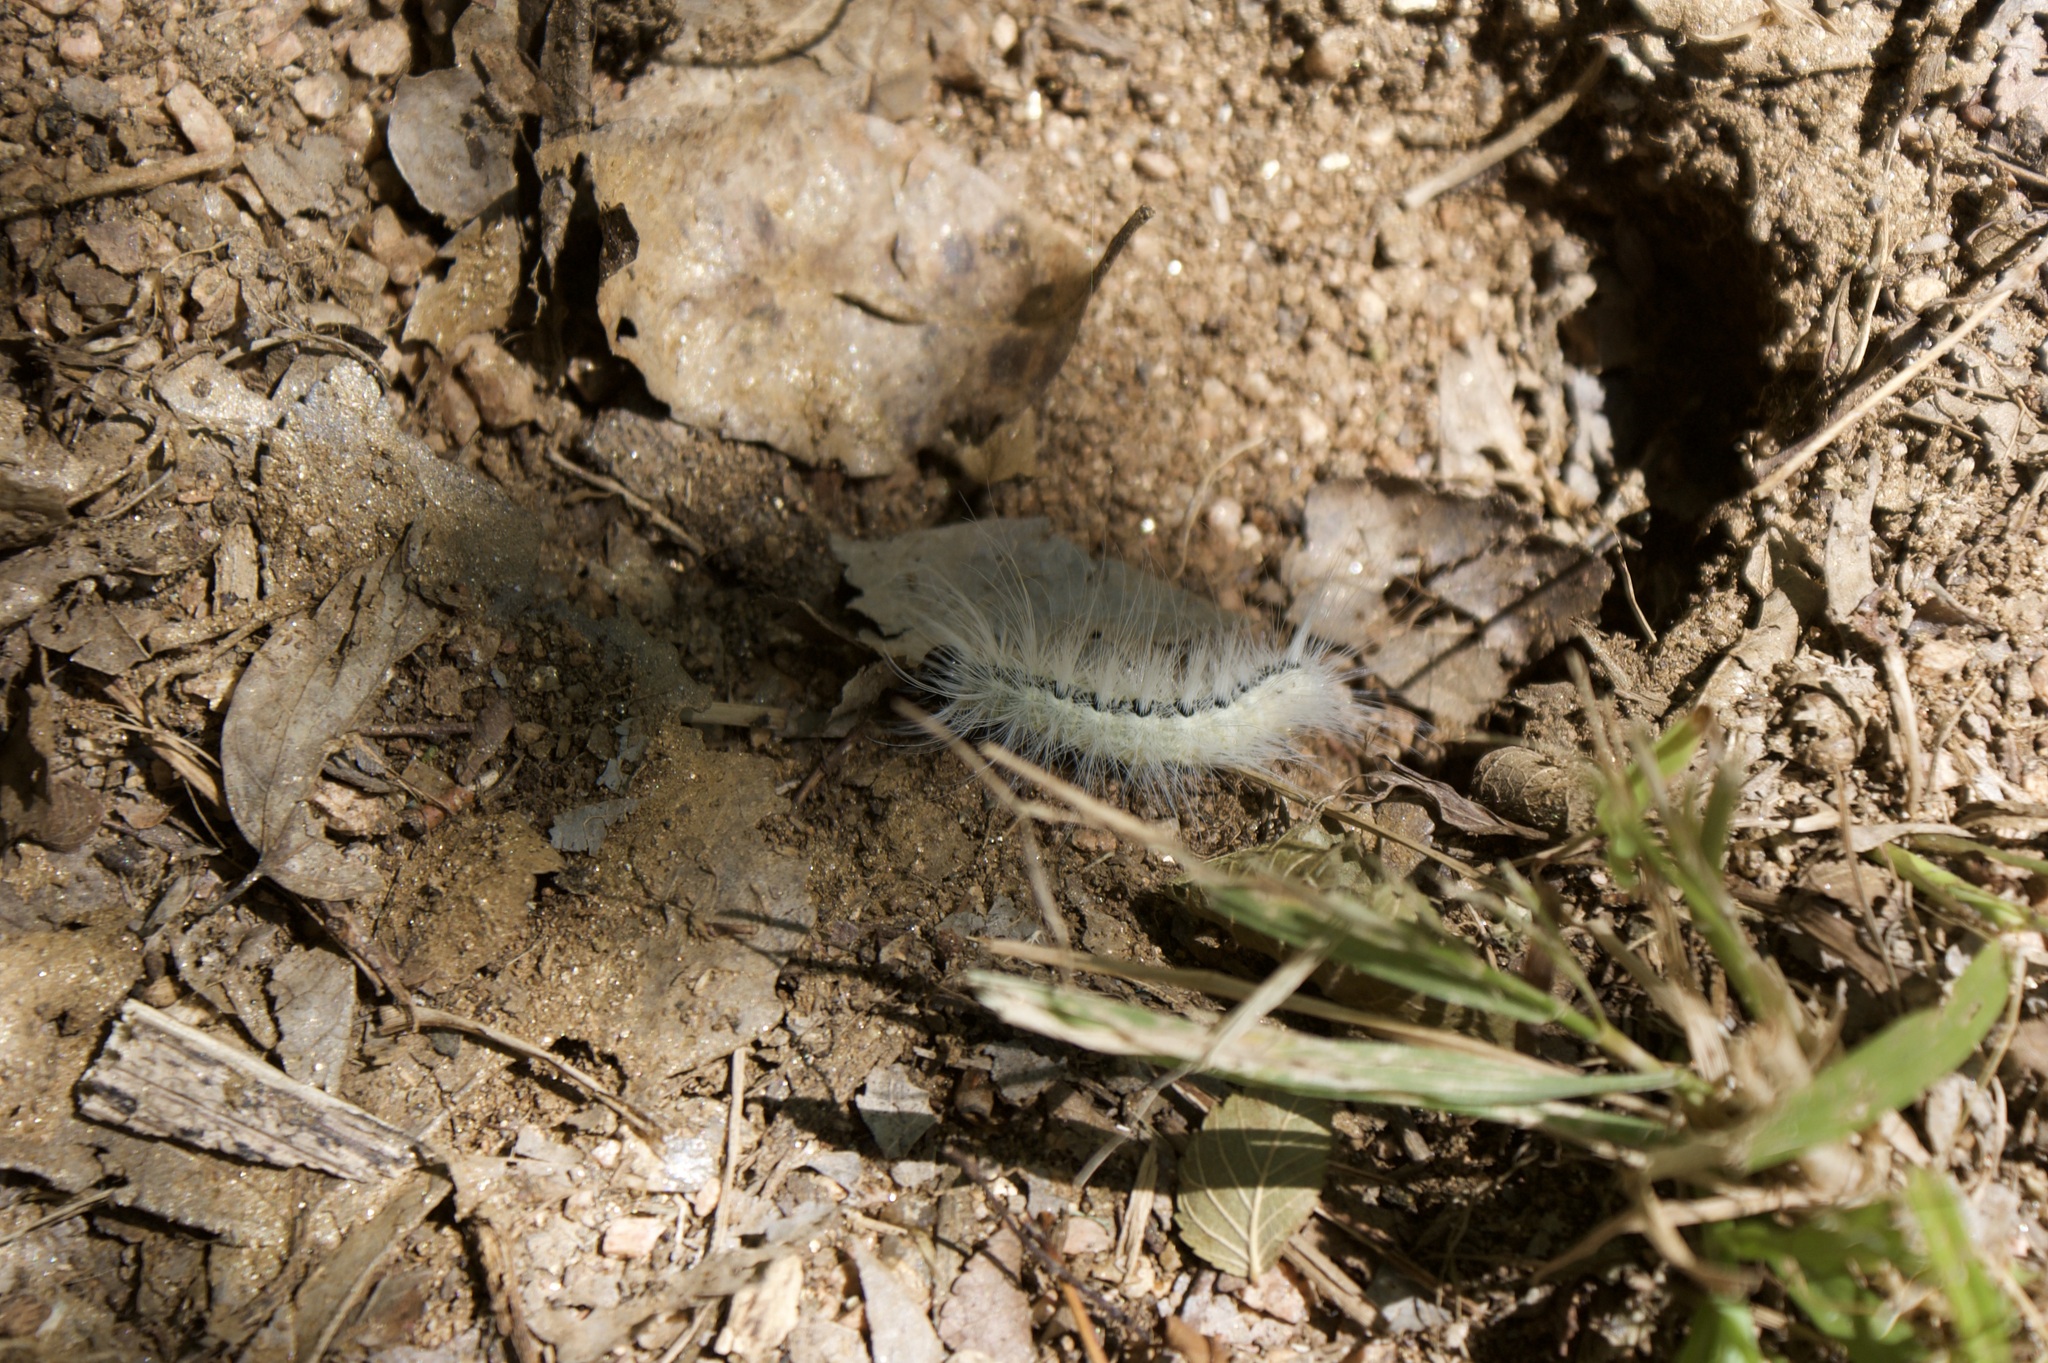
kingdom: Animalia
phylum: Arthropoda
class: Insecta
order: Lepidoptera
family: Noctuidae
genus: Acronicta
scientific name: Acronicta rubricoma
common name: Hackberry dagger
